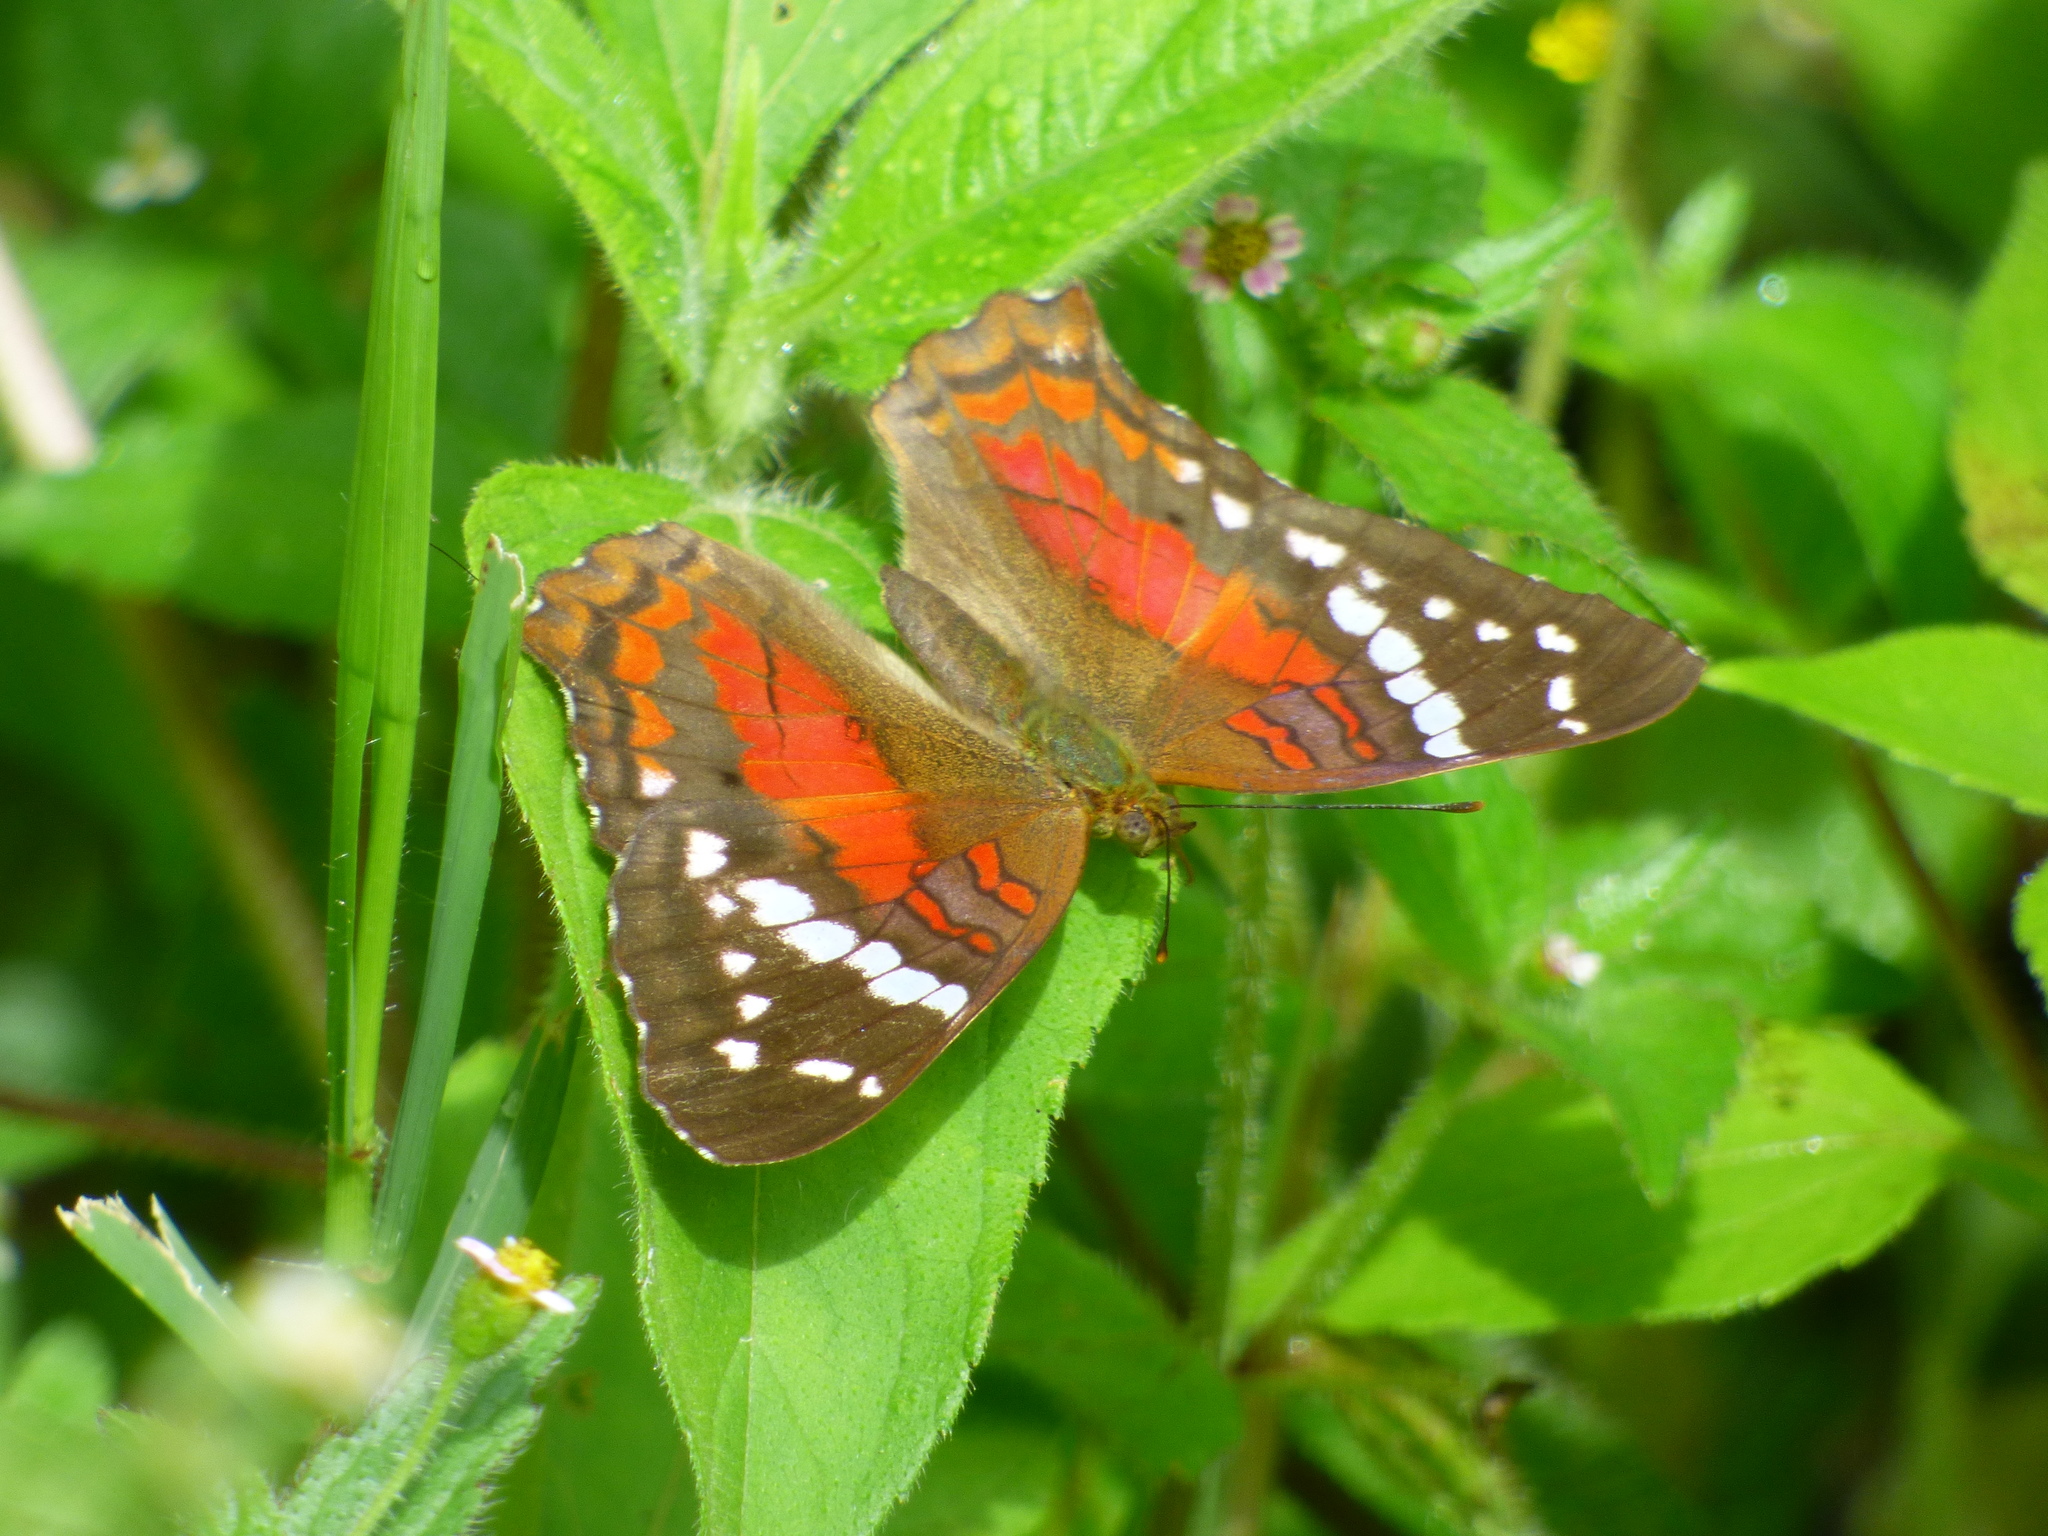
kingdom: Animalia
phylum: Arthropoda
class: Insecta
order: Lepidoptera
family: Nymphalidae
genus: Anartia
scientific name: Anartia amathea
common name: Red peacock
